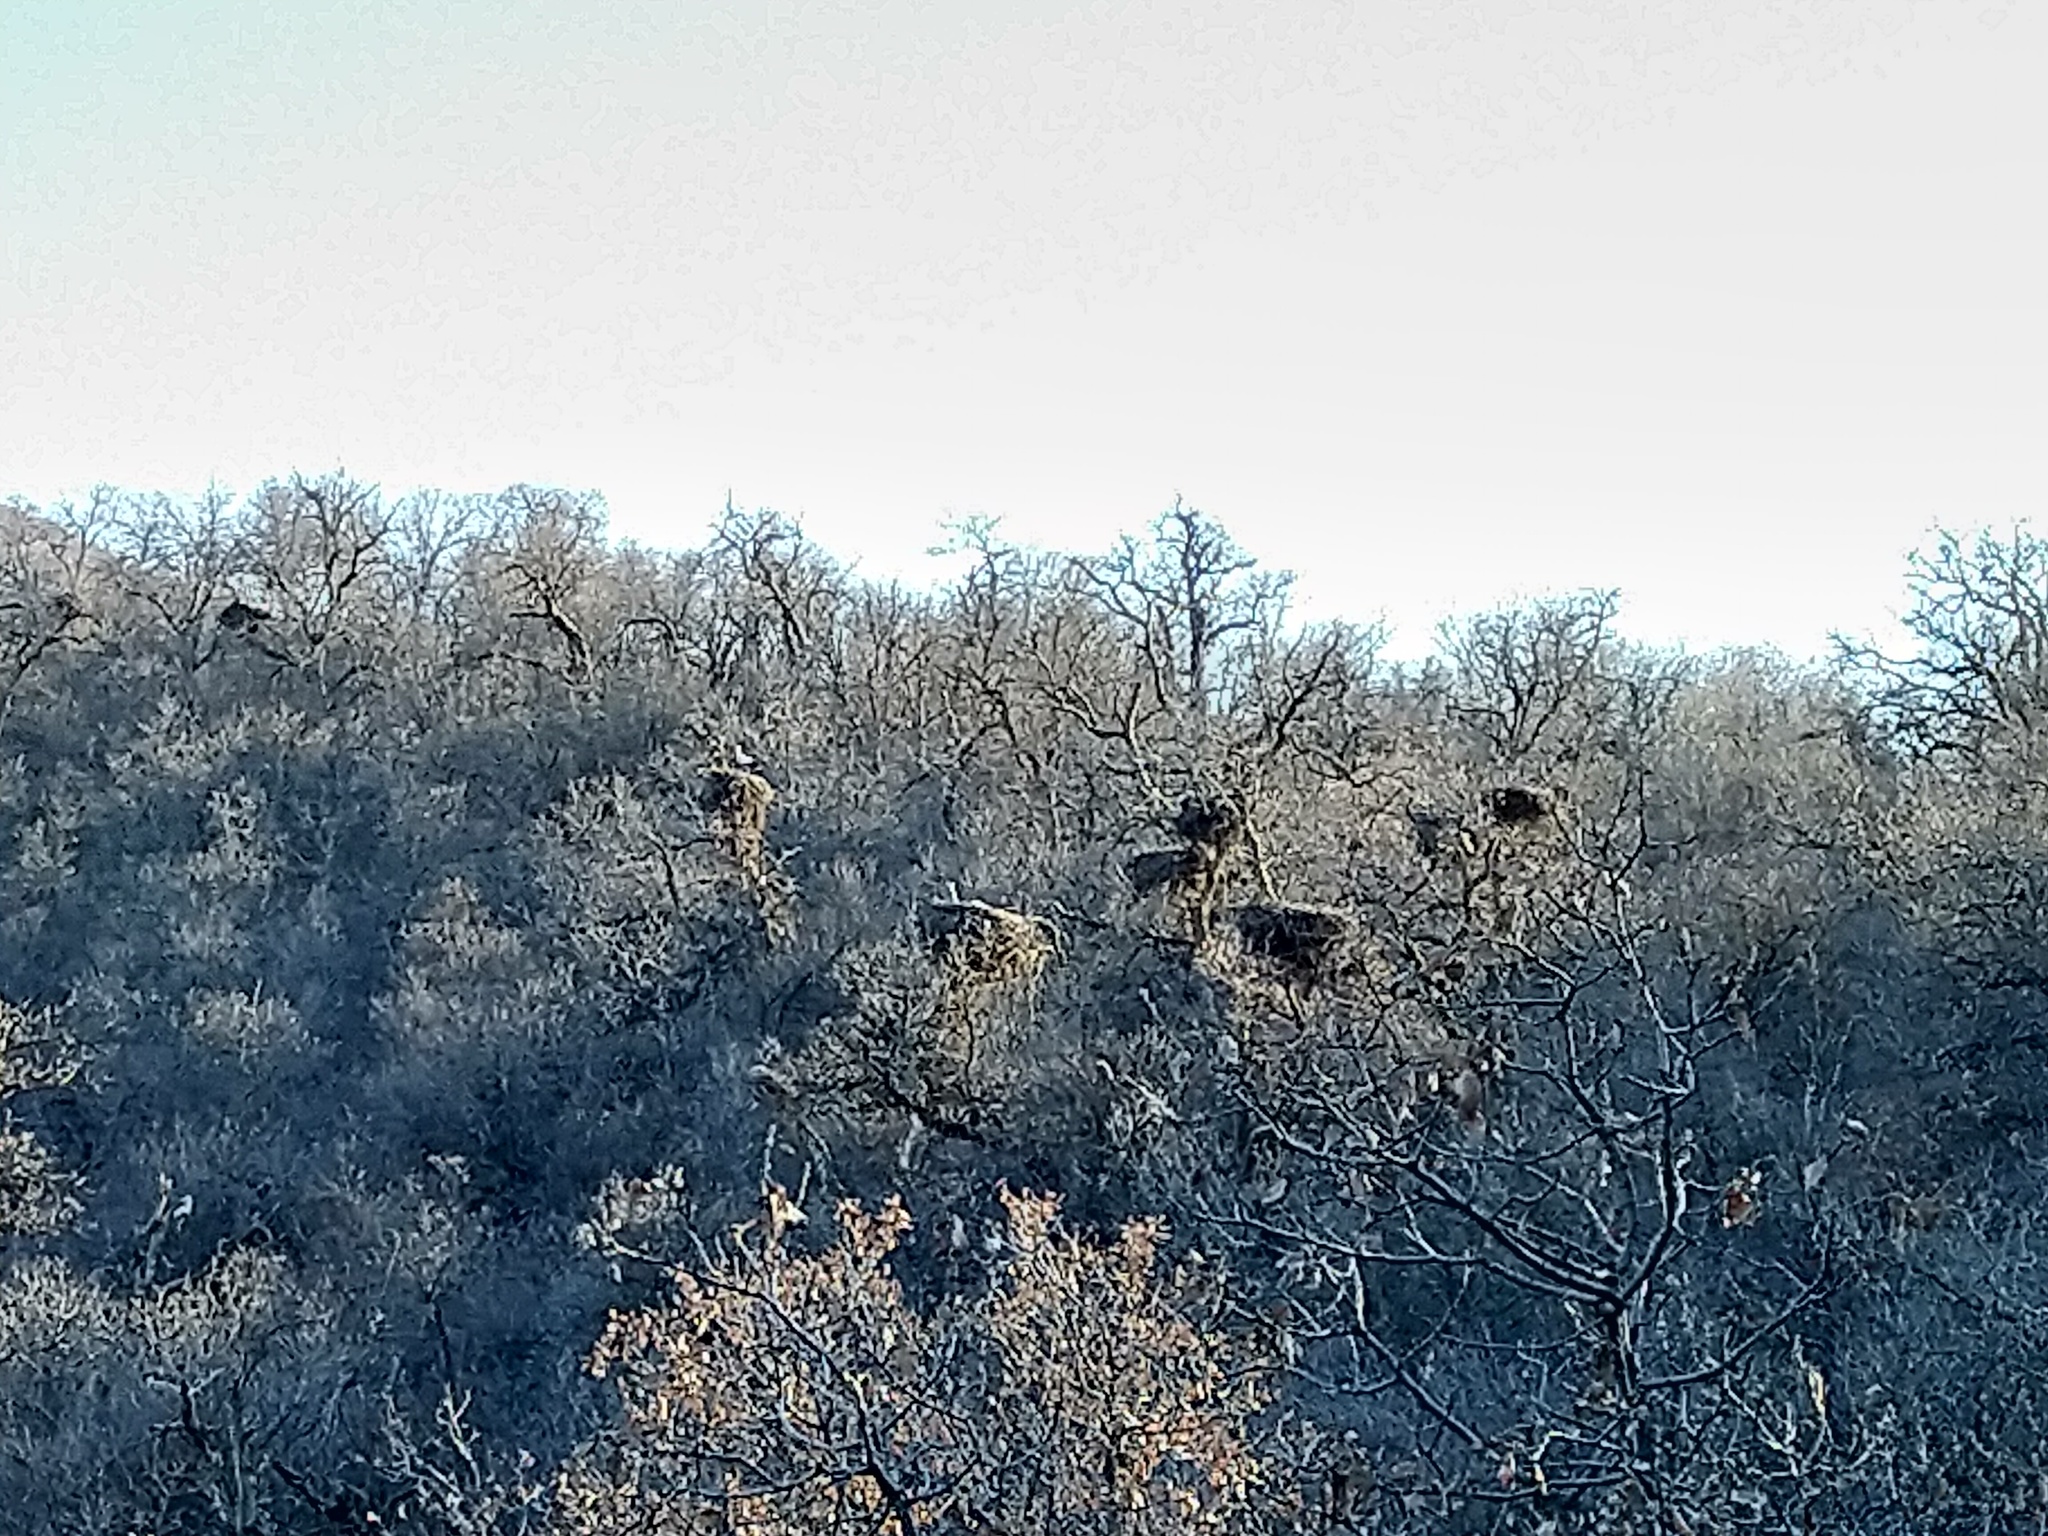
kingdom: Animalia
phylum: Chordata
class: Aves
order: Ciconiiformes
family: Ciconiidae
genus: Ciconia
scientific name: Ciconia ciconia
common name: White stork
